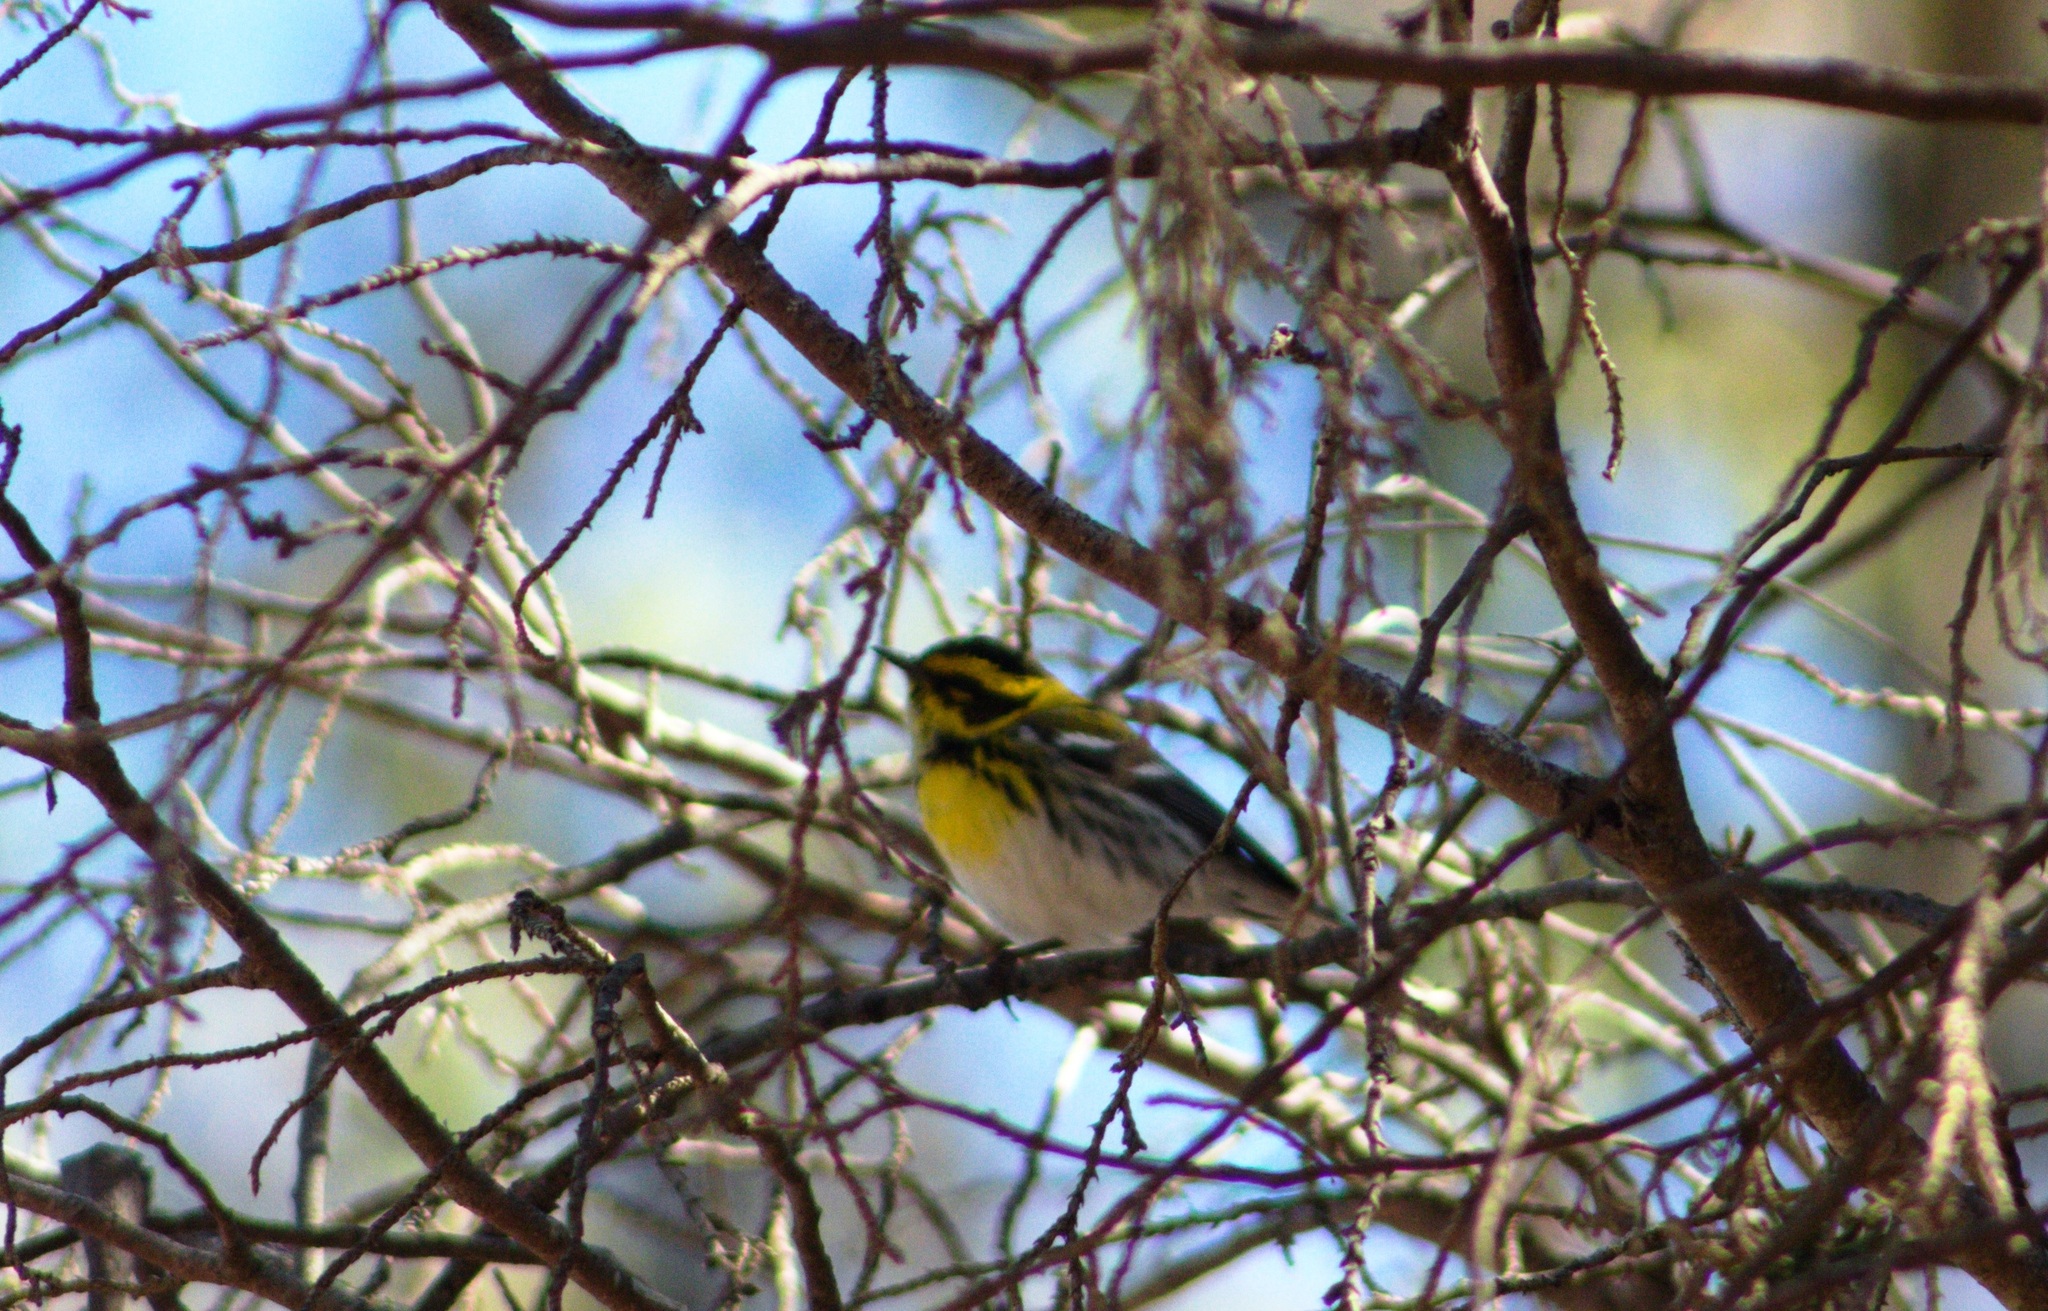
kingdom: Animalia
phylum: Chordata
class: Aves
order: Passeriformes
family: Parulidae
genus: Setophaga
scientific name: Setophaga townsendi
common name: Townsend's warbler
